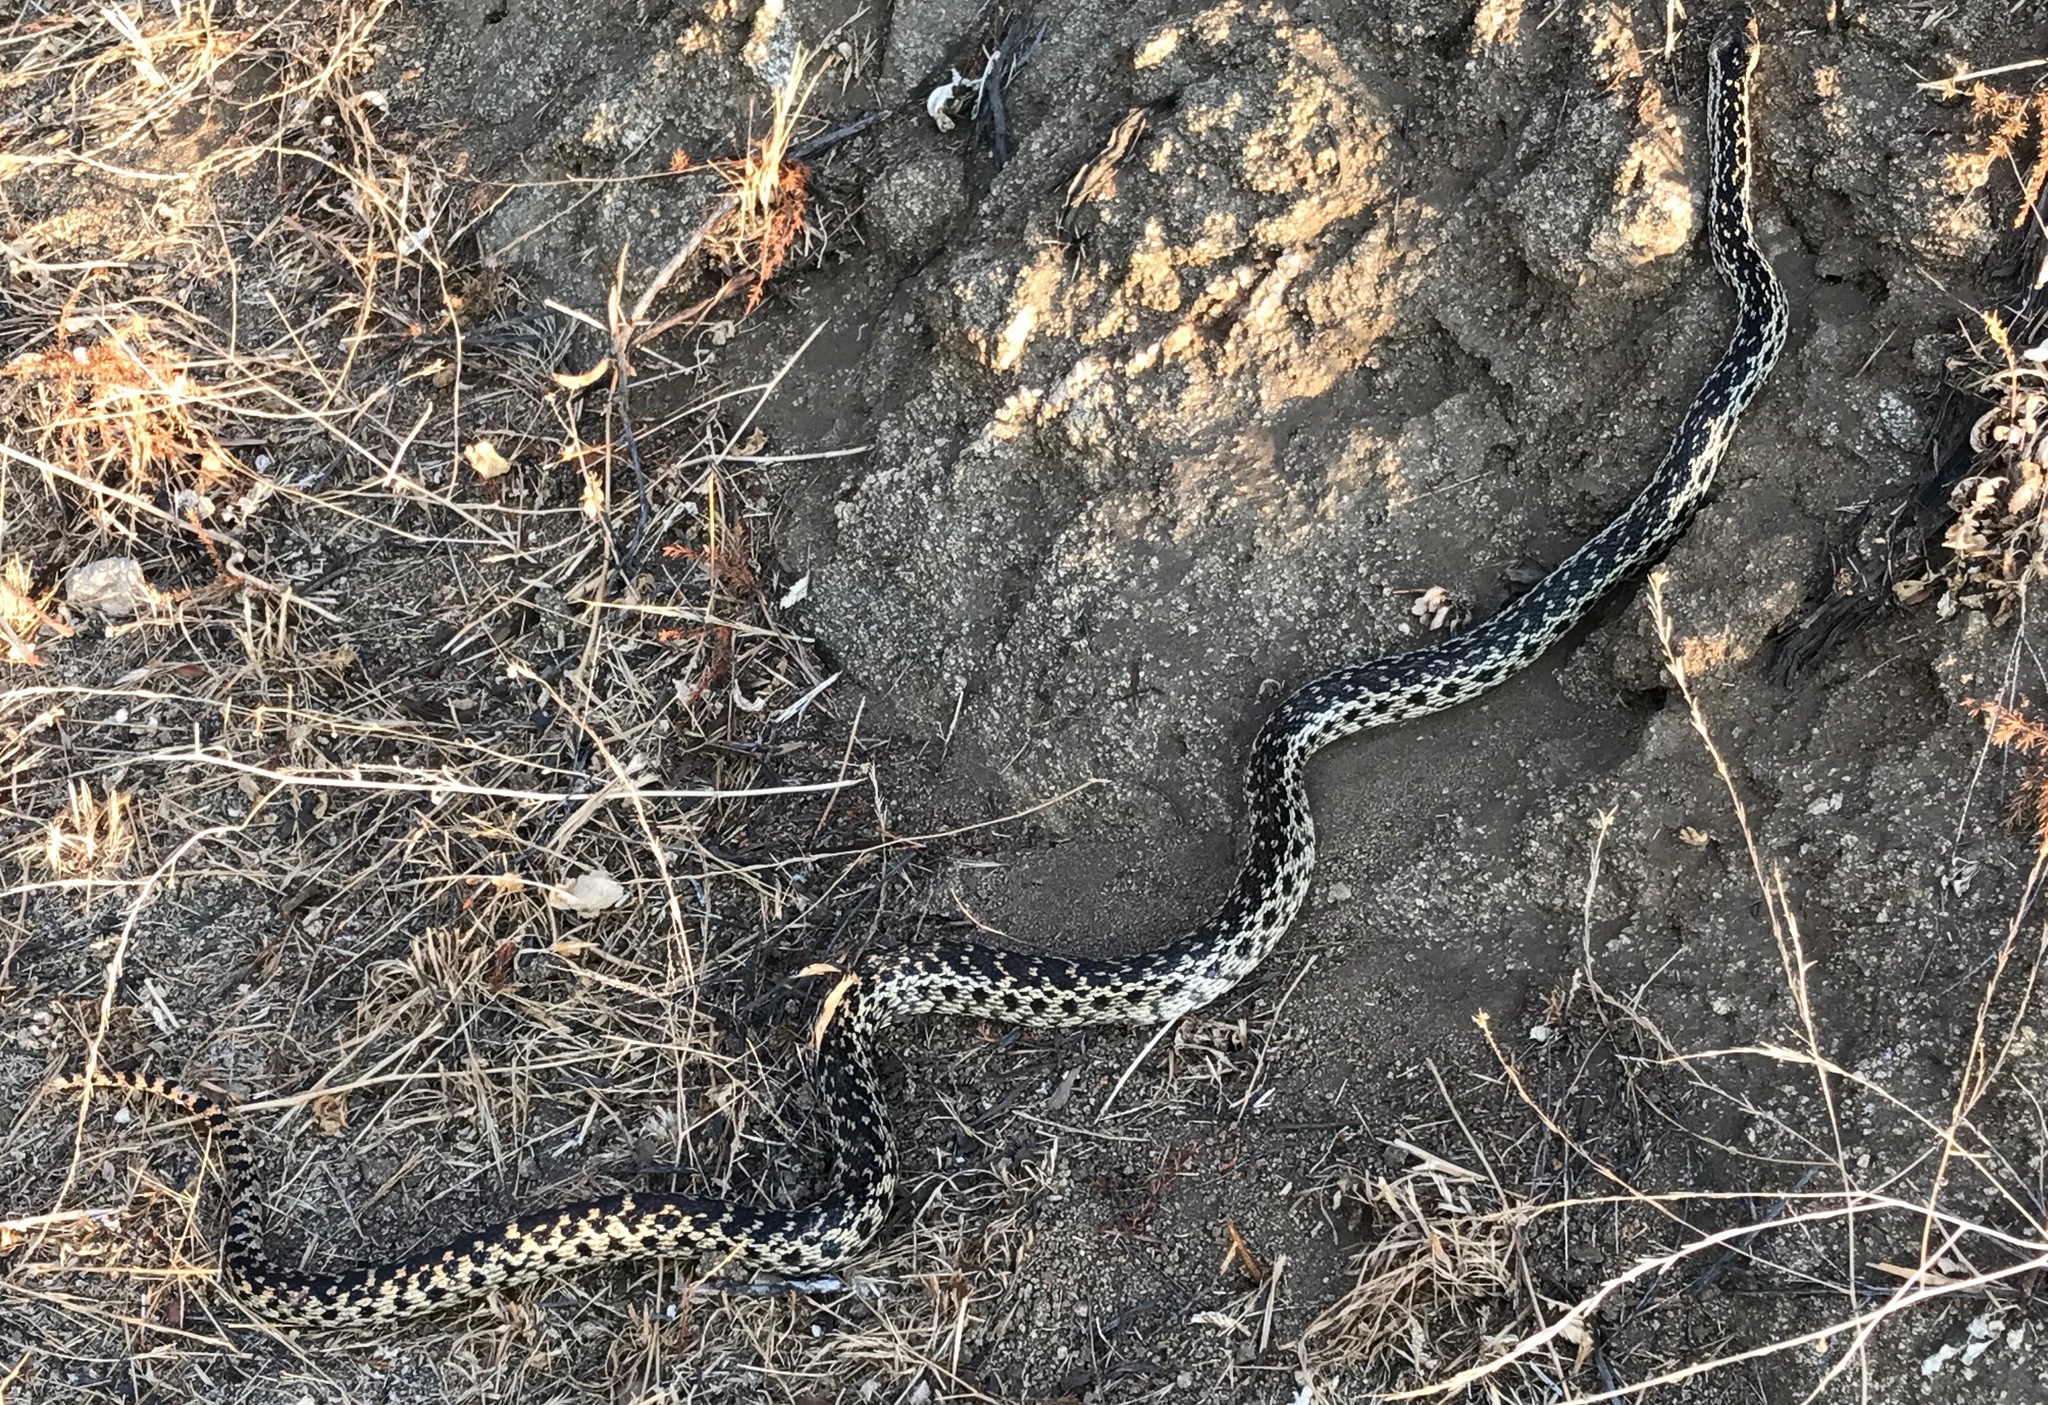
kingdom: Animalia
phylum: Chordata
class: Squamata
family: Colubridae
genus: Pituophis
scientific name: Pituophis catenifer
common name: Gopher snake
